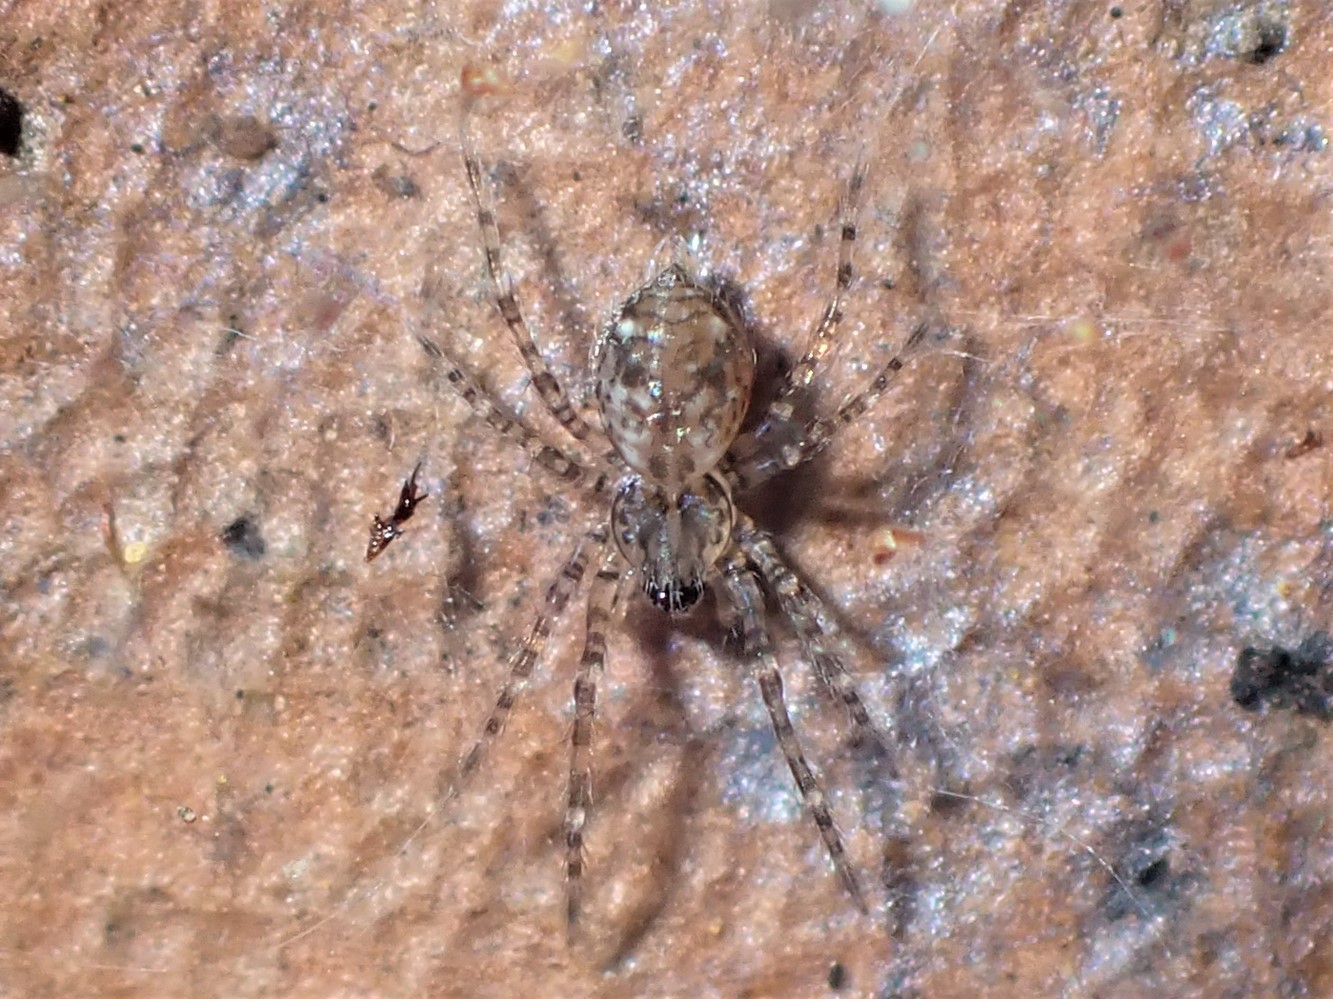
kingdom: Animalia
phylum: Arthropoda
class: Arachnida
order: Araneae
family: Stiphidiidae
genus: Stiphidion
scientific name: Stiphidion facetum
